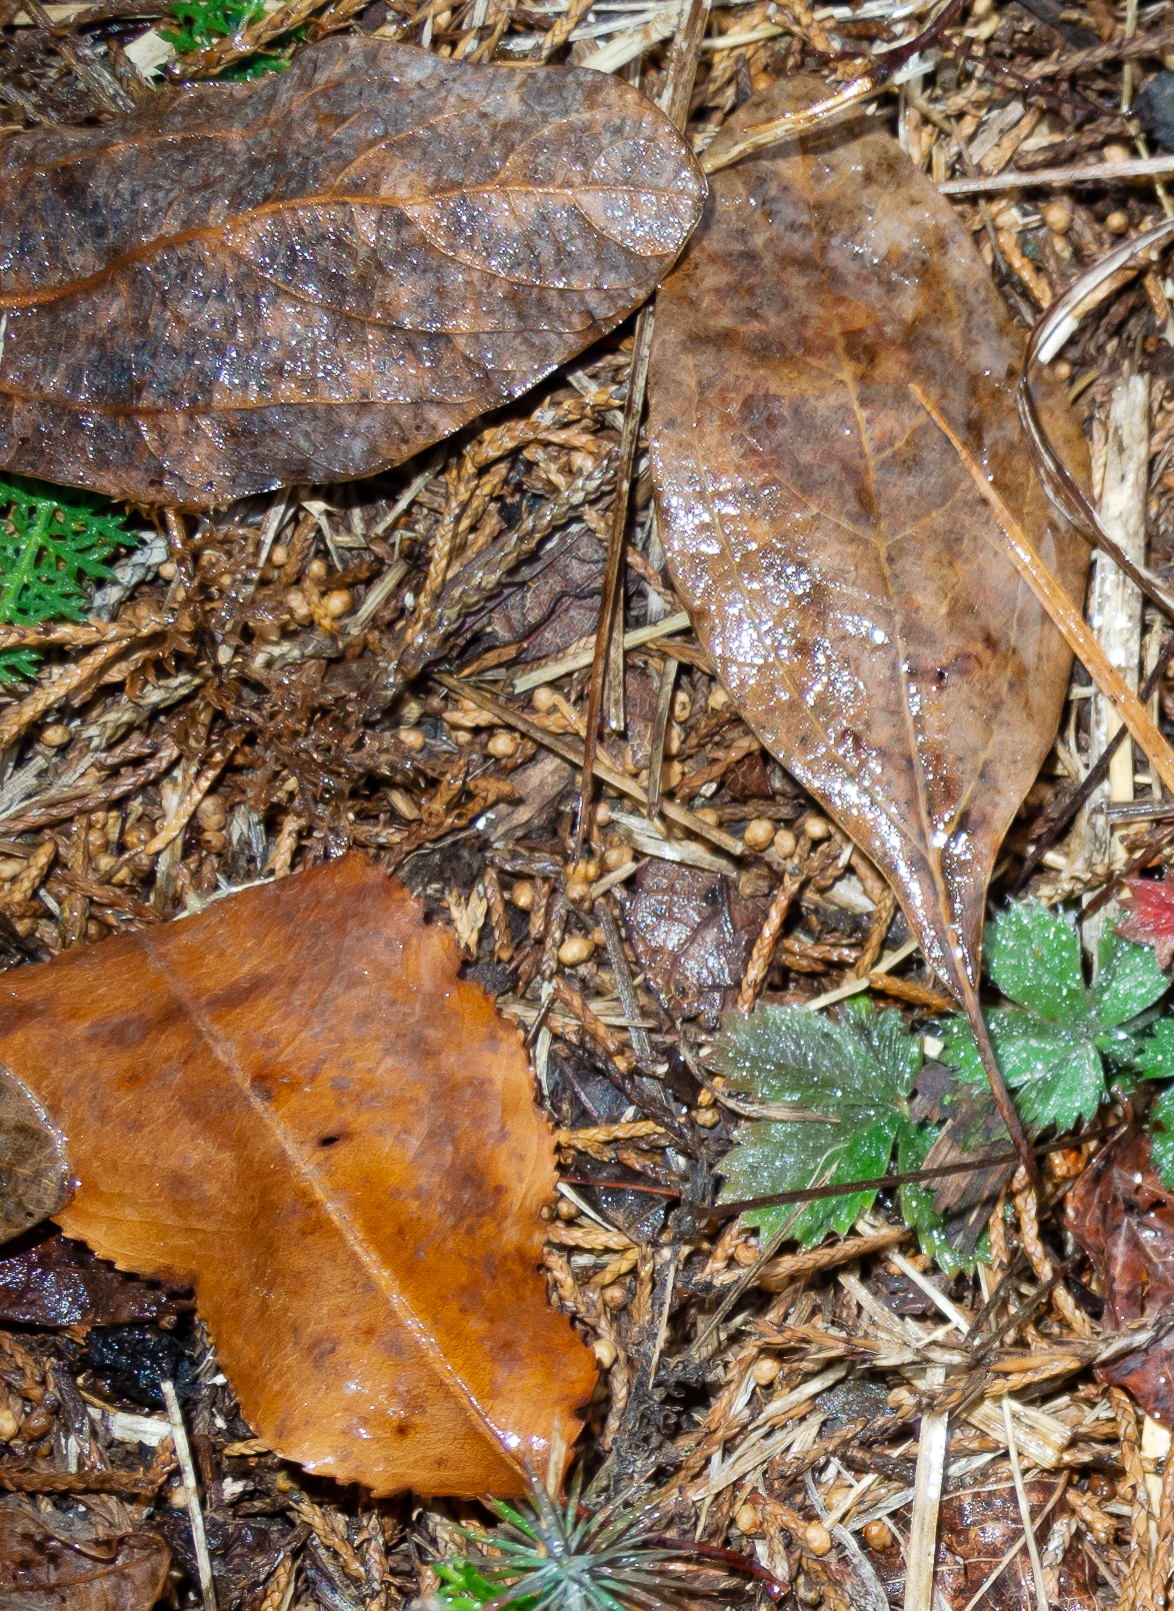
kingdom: Plantae
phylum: Tracheophyta
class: Magnoliopsida
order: Laurales
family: Lauraceae
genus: Sassafras
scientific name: Sassafras albidum
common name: Sassafras
